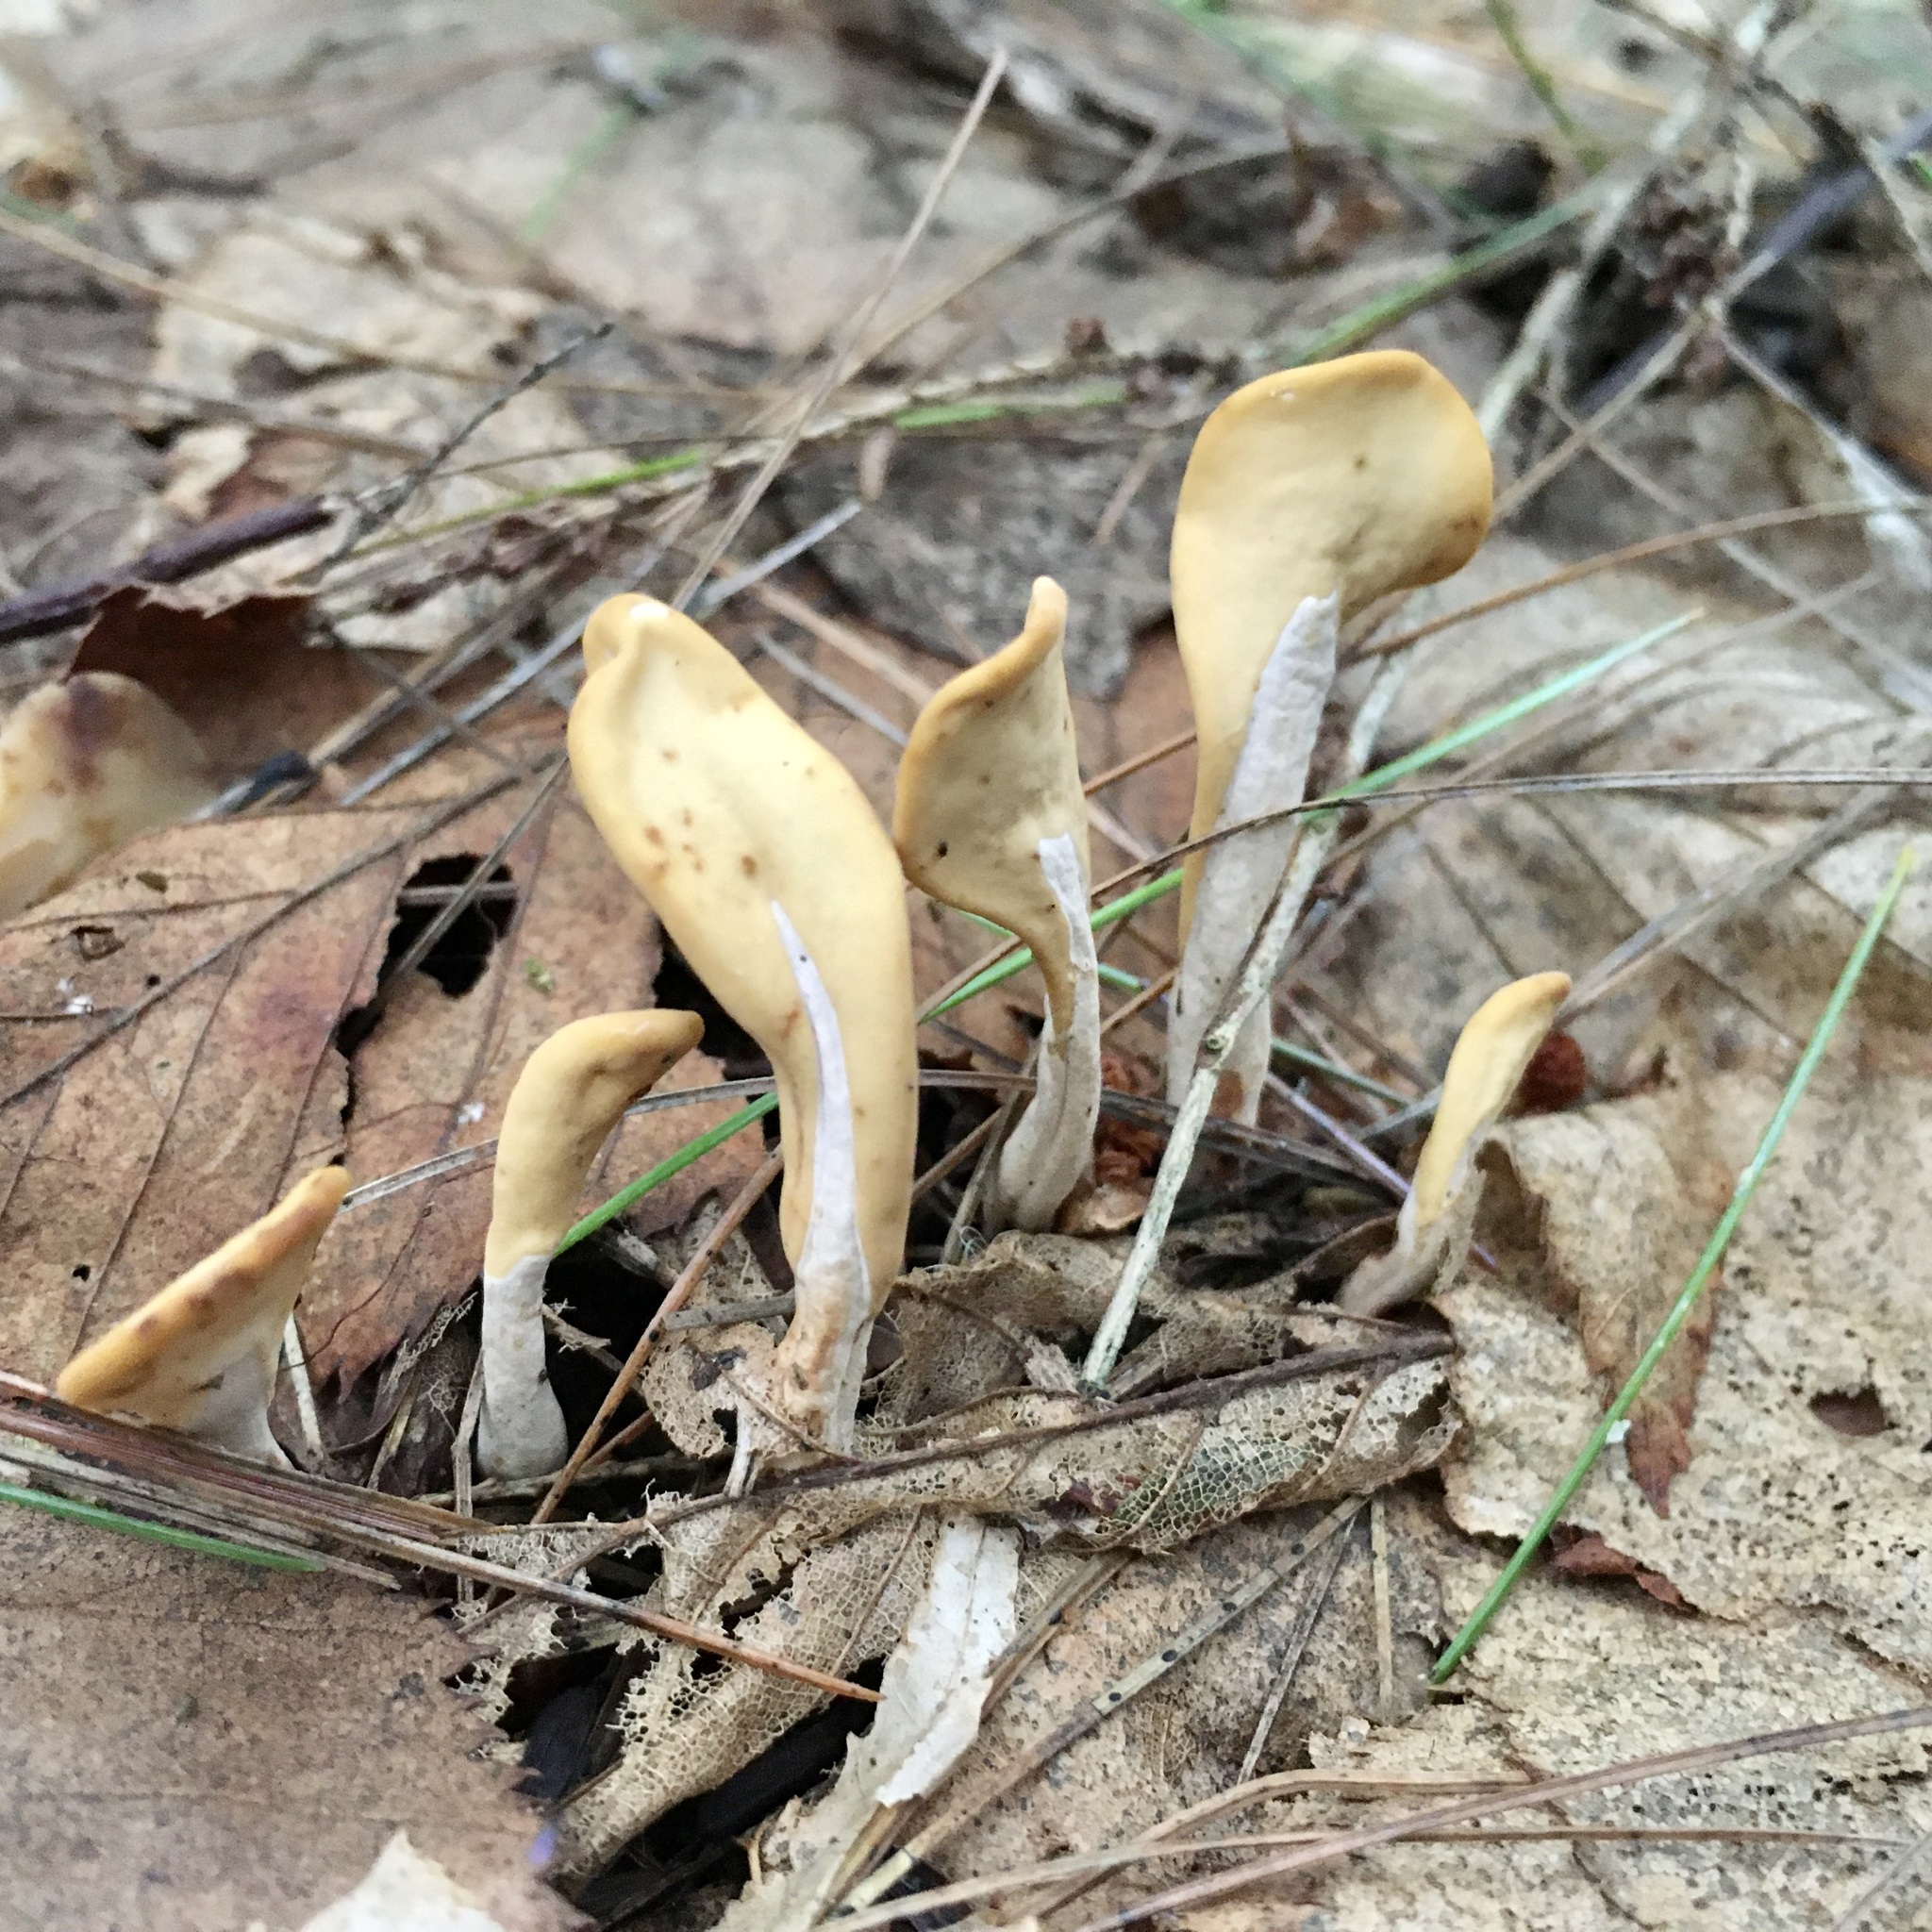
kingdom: Fungi
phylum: Ascomycota
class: Leotiomycetes
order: Rhytismatales
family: Cudoniaceae
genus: Spathularia
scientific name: Spathularia flavida
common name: Yellow fan
